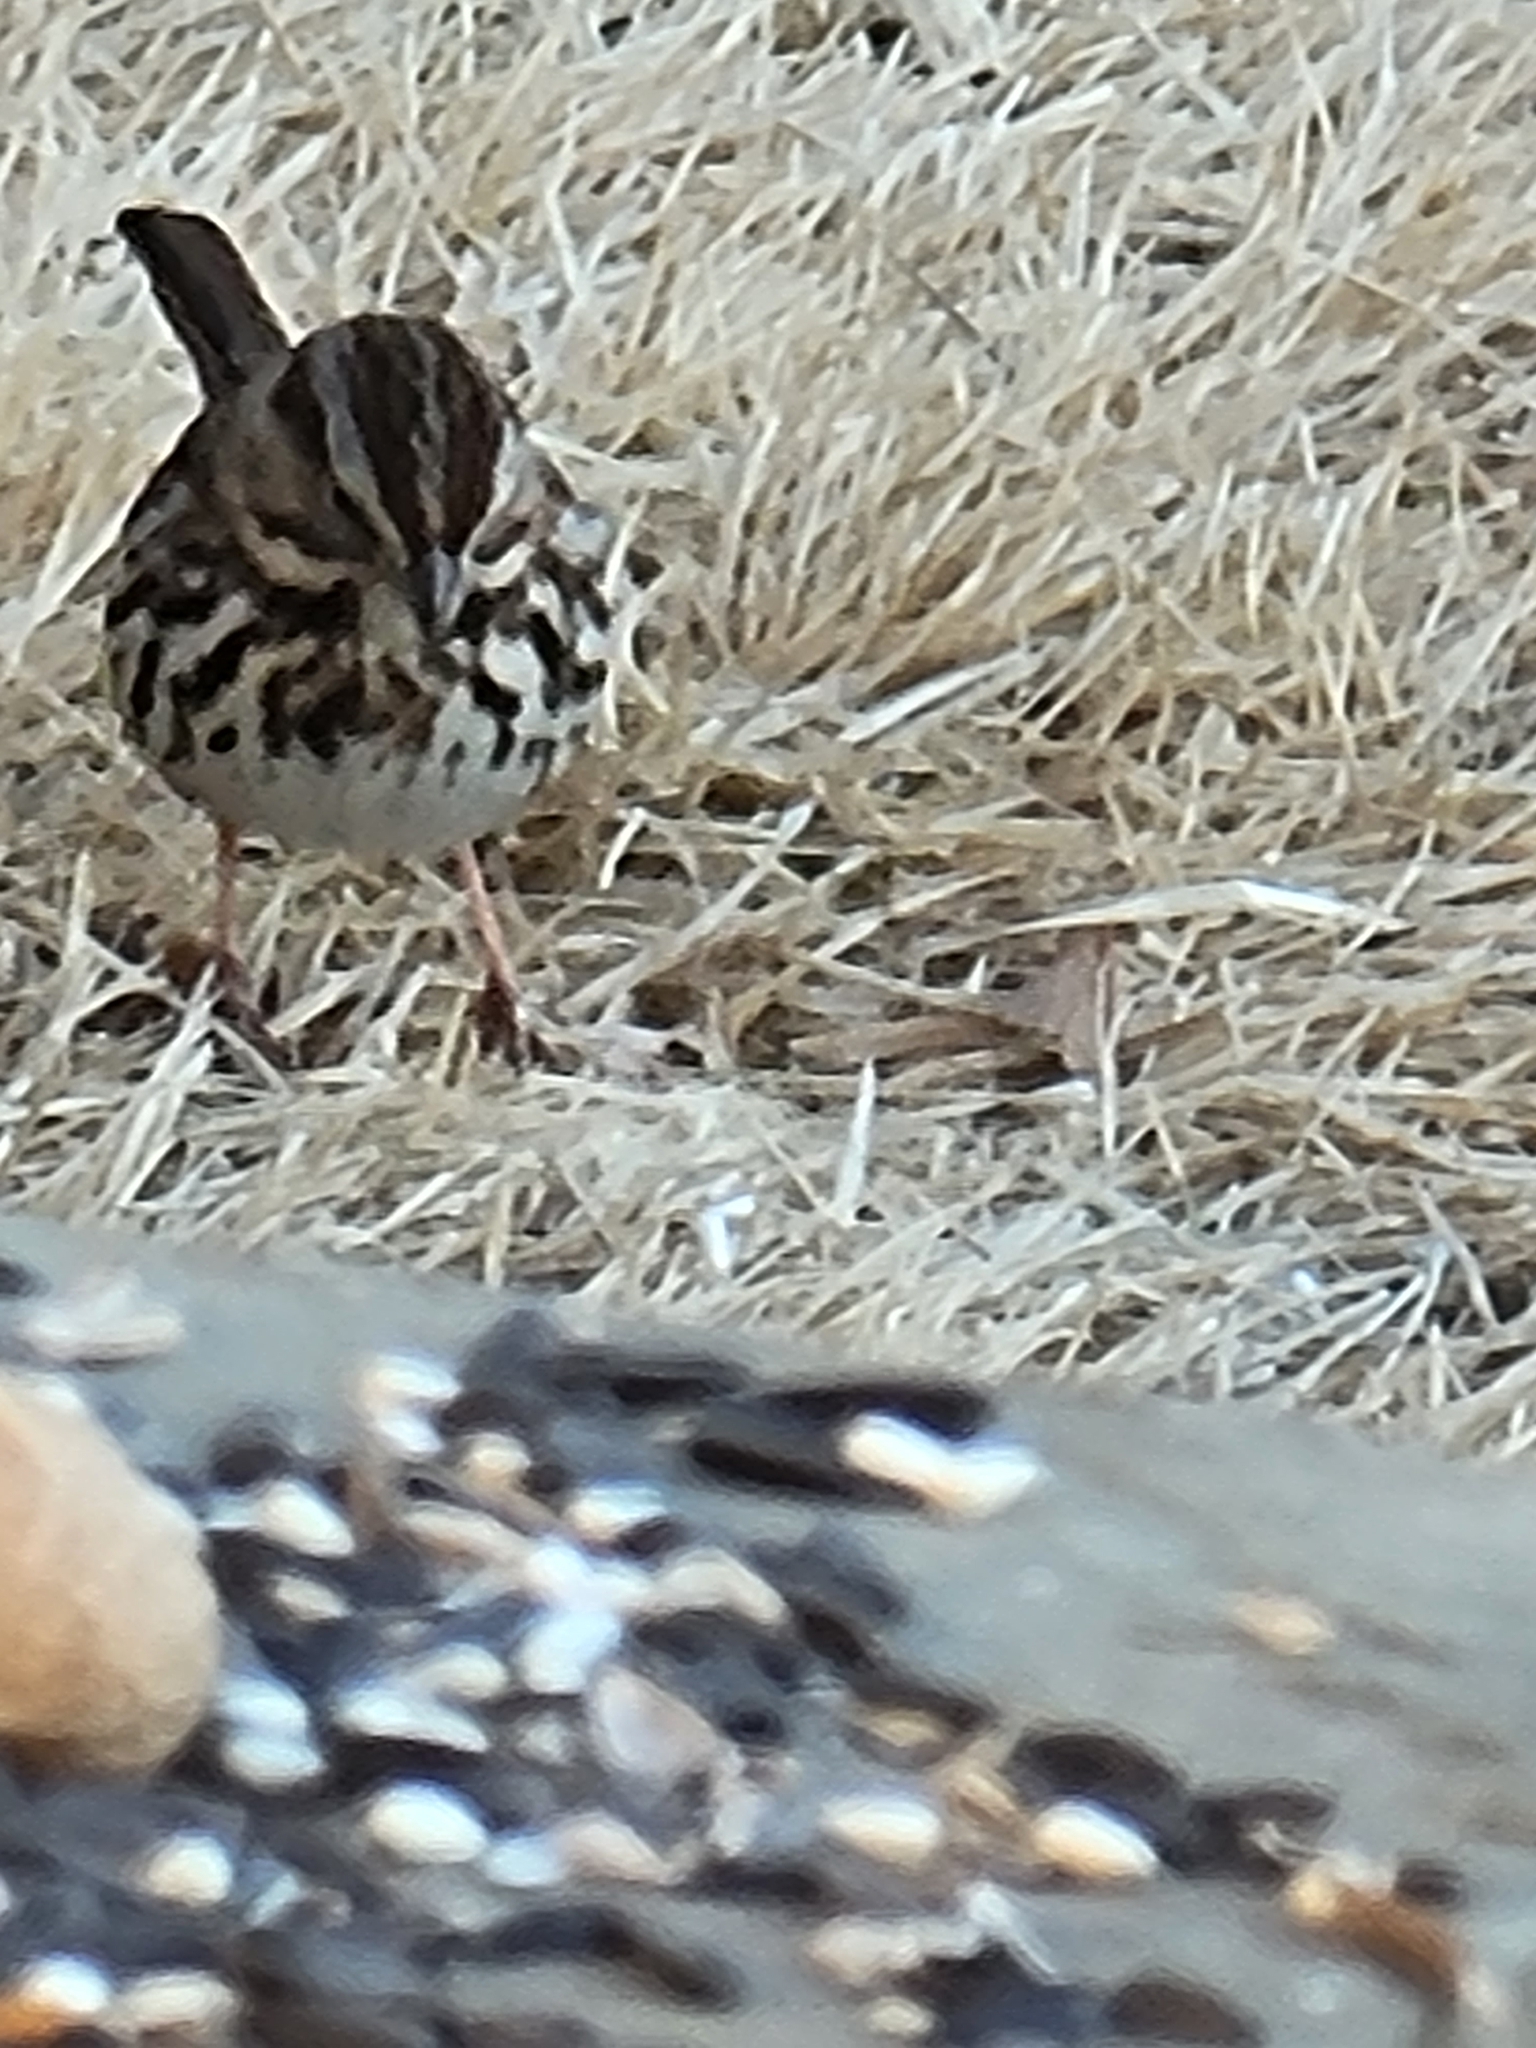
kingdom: Animalia
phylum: Chordata
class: Aves
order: Passeriformes
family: Passerellidae
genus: Melospiza
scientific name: Melospiza melodia
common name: Song sparrow
